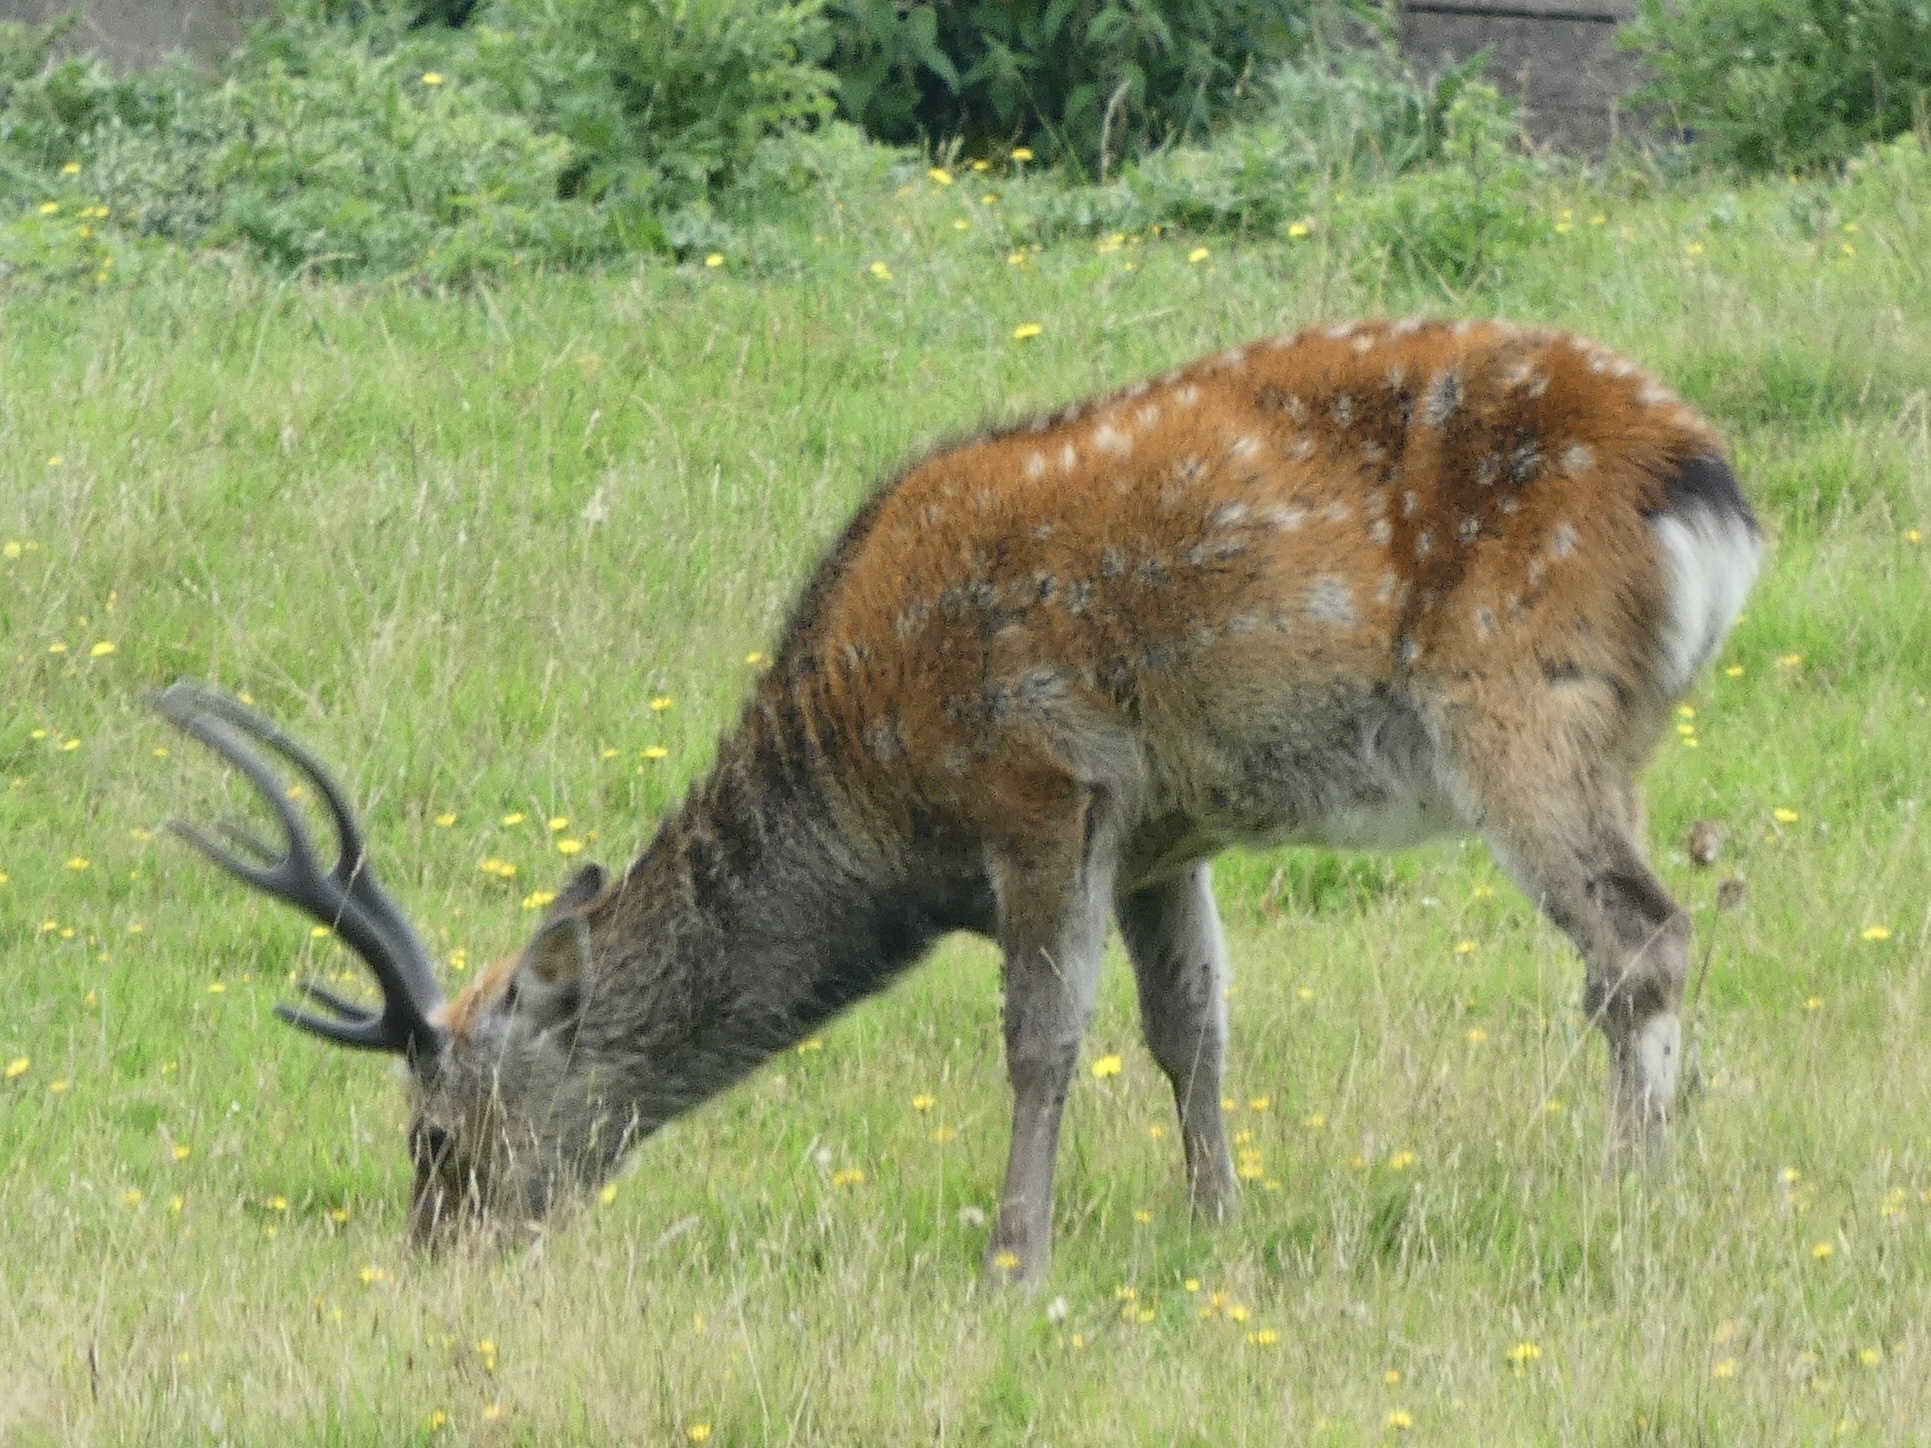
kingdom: Animalia
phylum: Chordata
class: Mammalia
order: Artiodactyla
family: Cervidae
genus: Cervus
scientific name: Cervus nippon
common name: Sika deer
